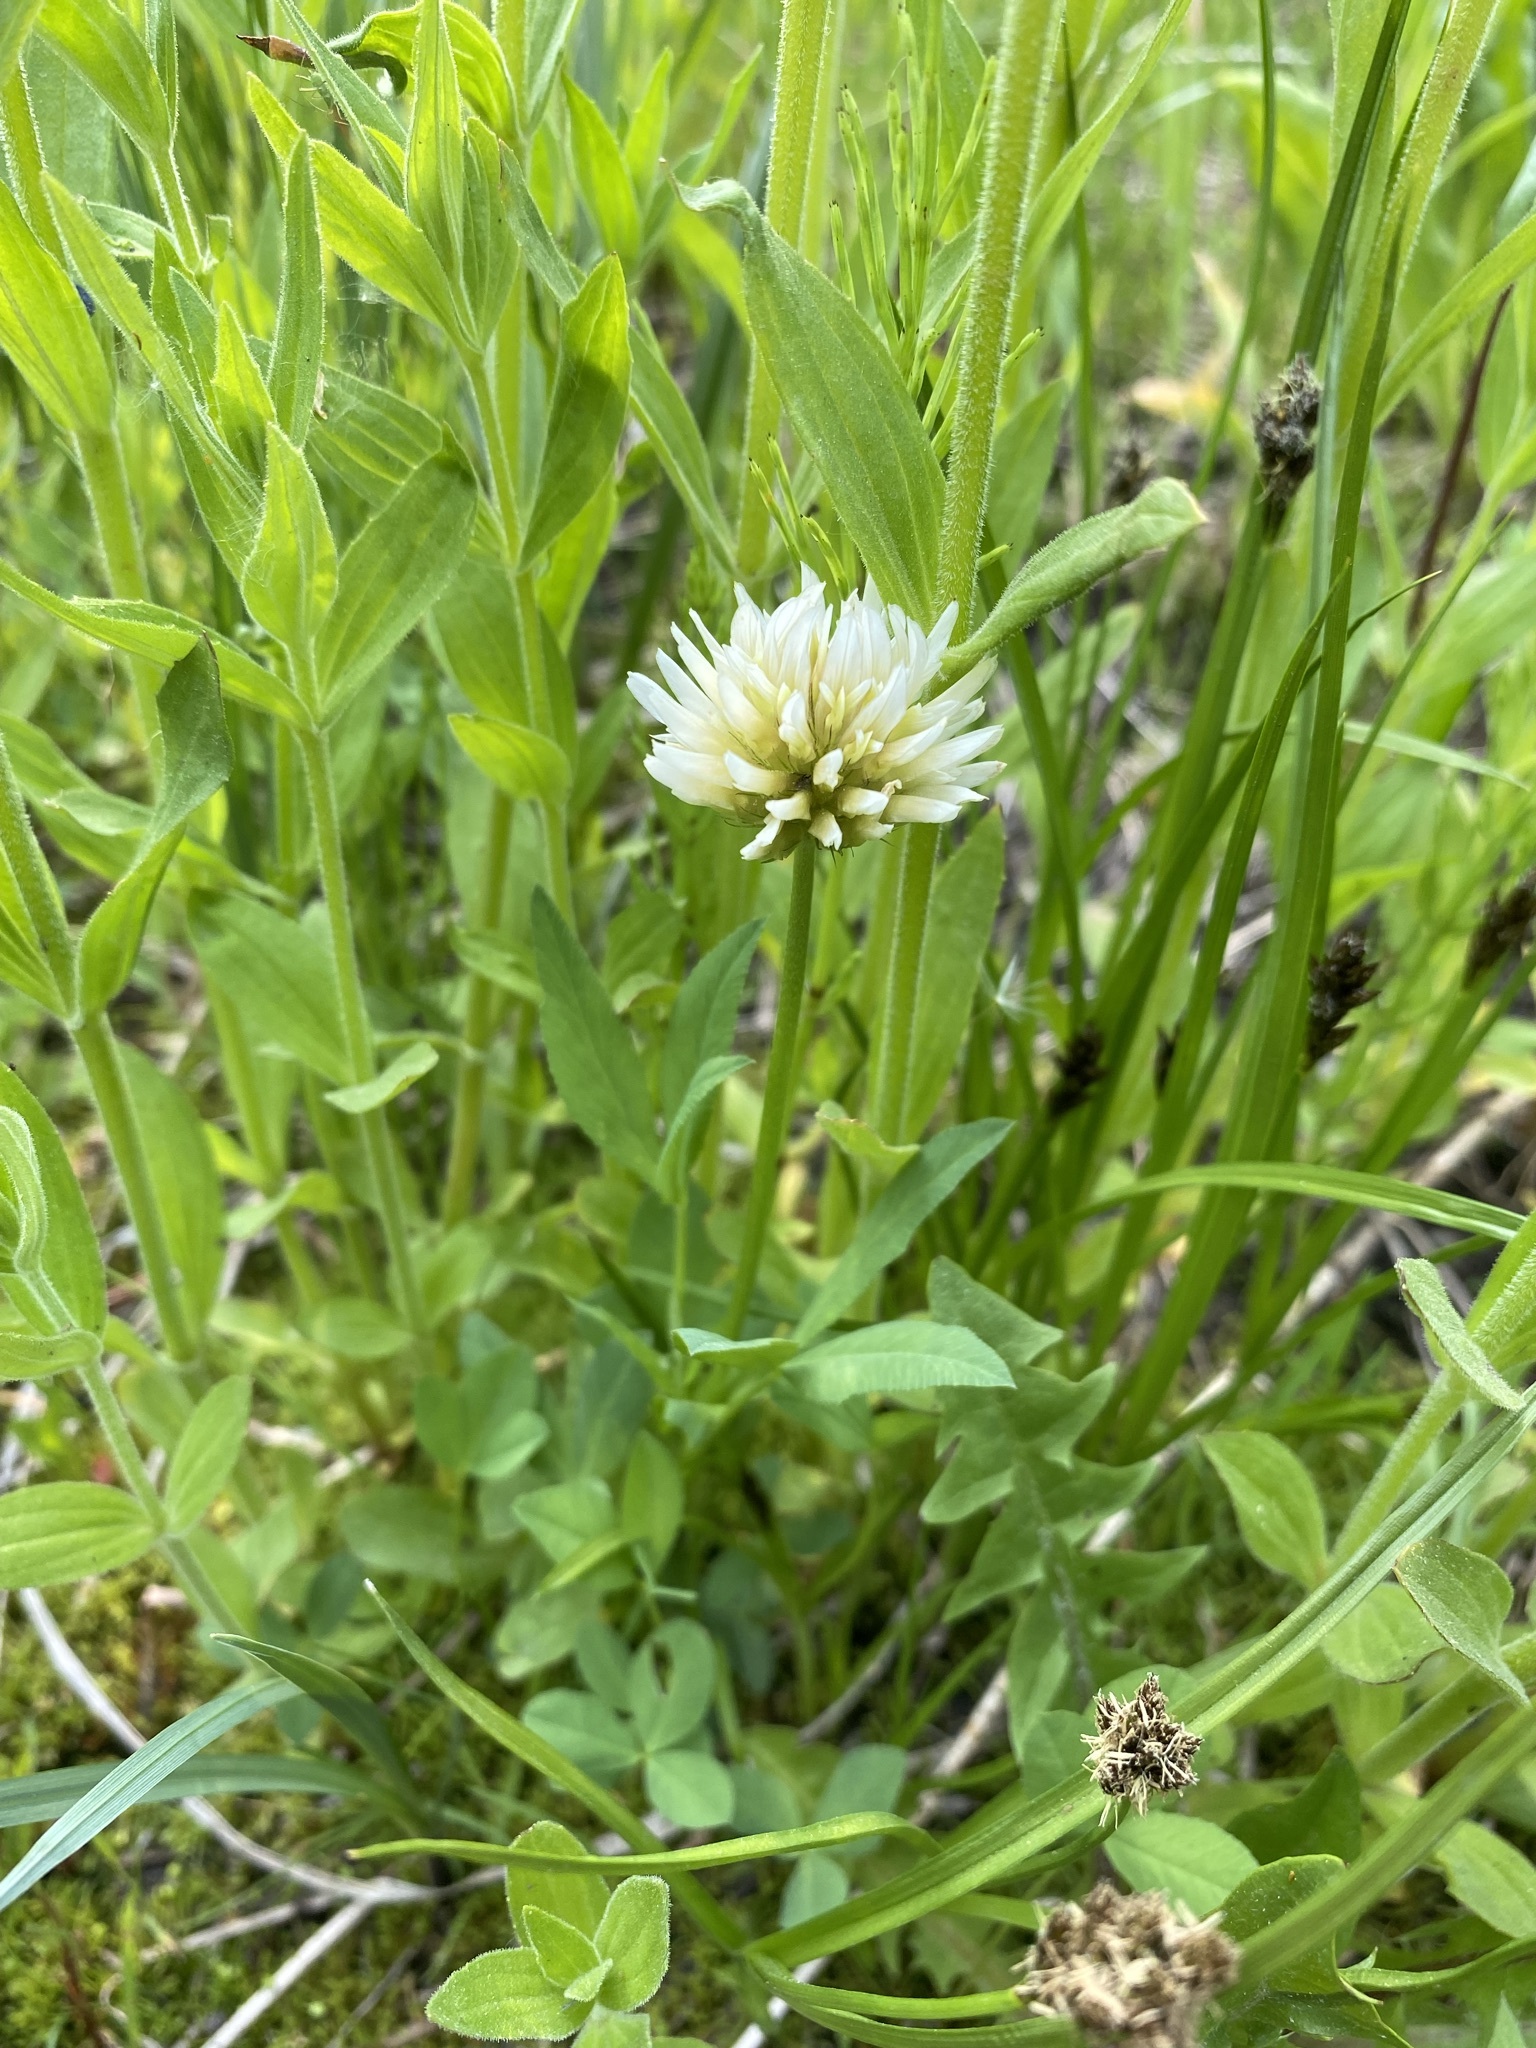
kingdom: Plantae
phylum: Tracheophyta
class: Magnoliopsida
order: Fabales
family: Fabaceae
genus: Trifolium
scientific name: Trifolium longipes
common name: Long-stalk clover
